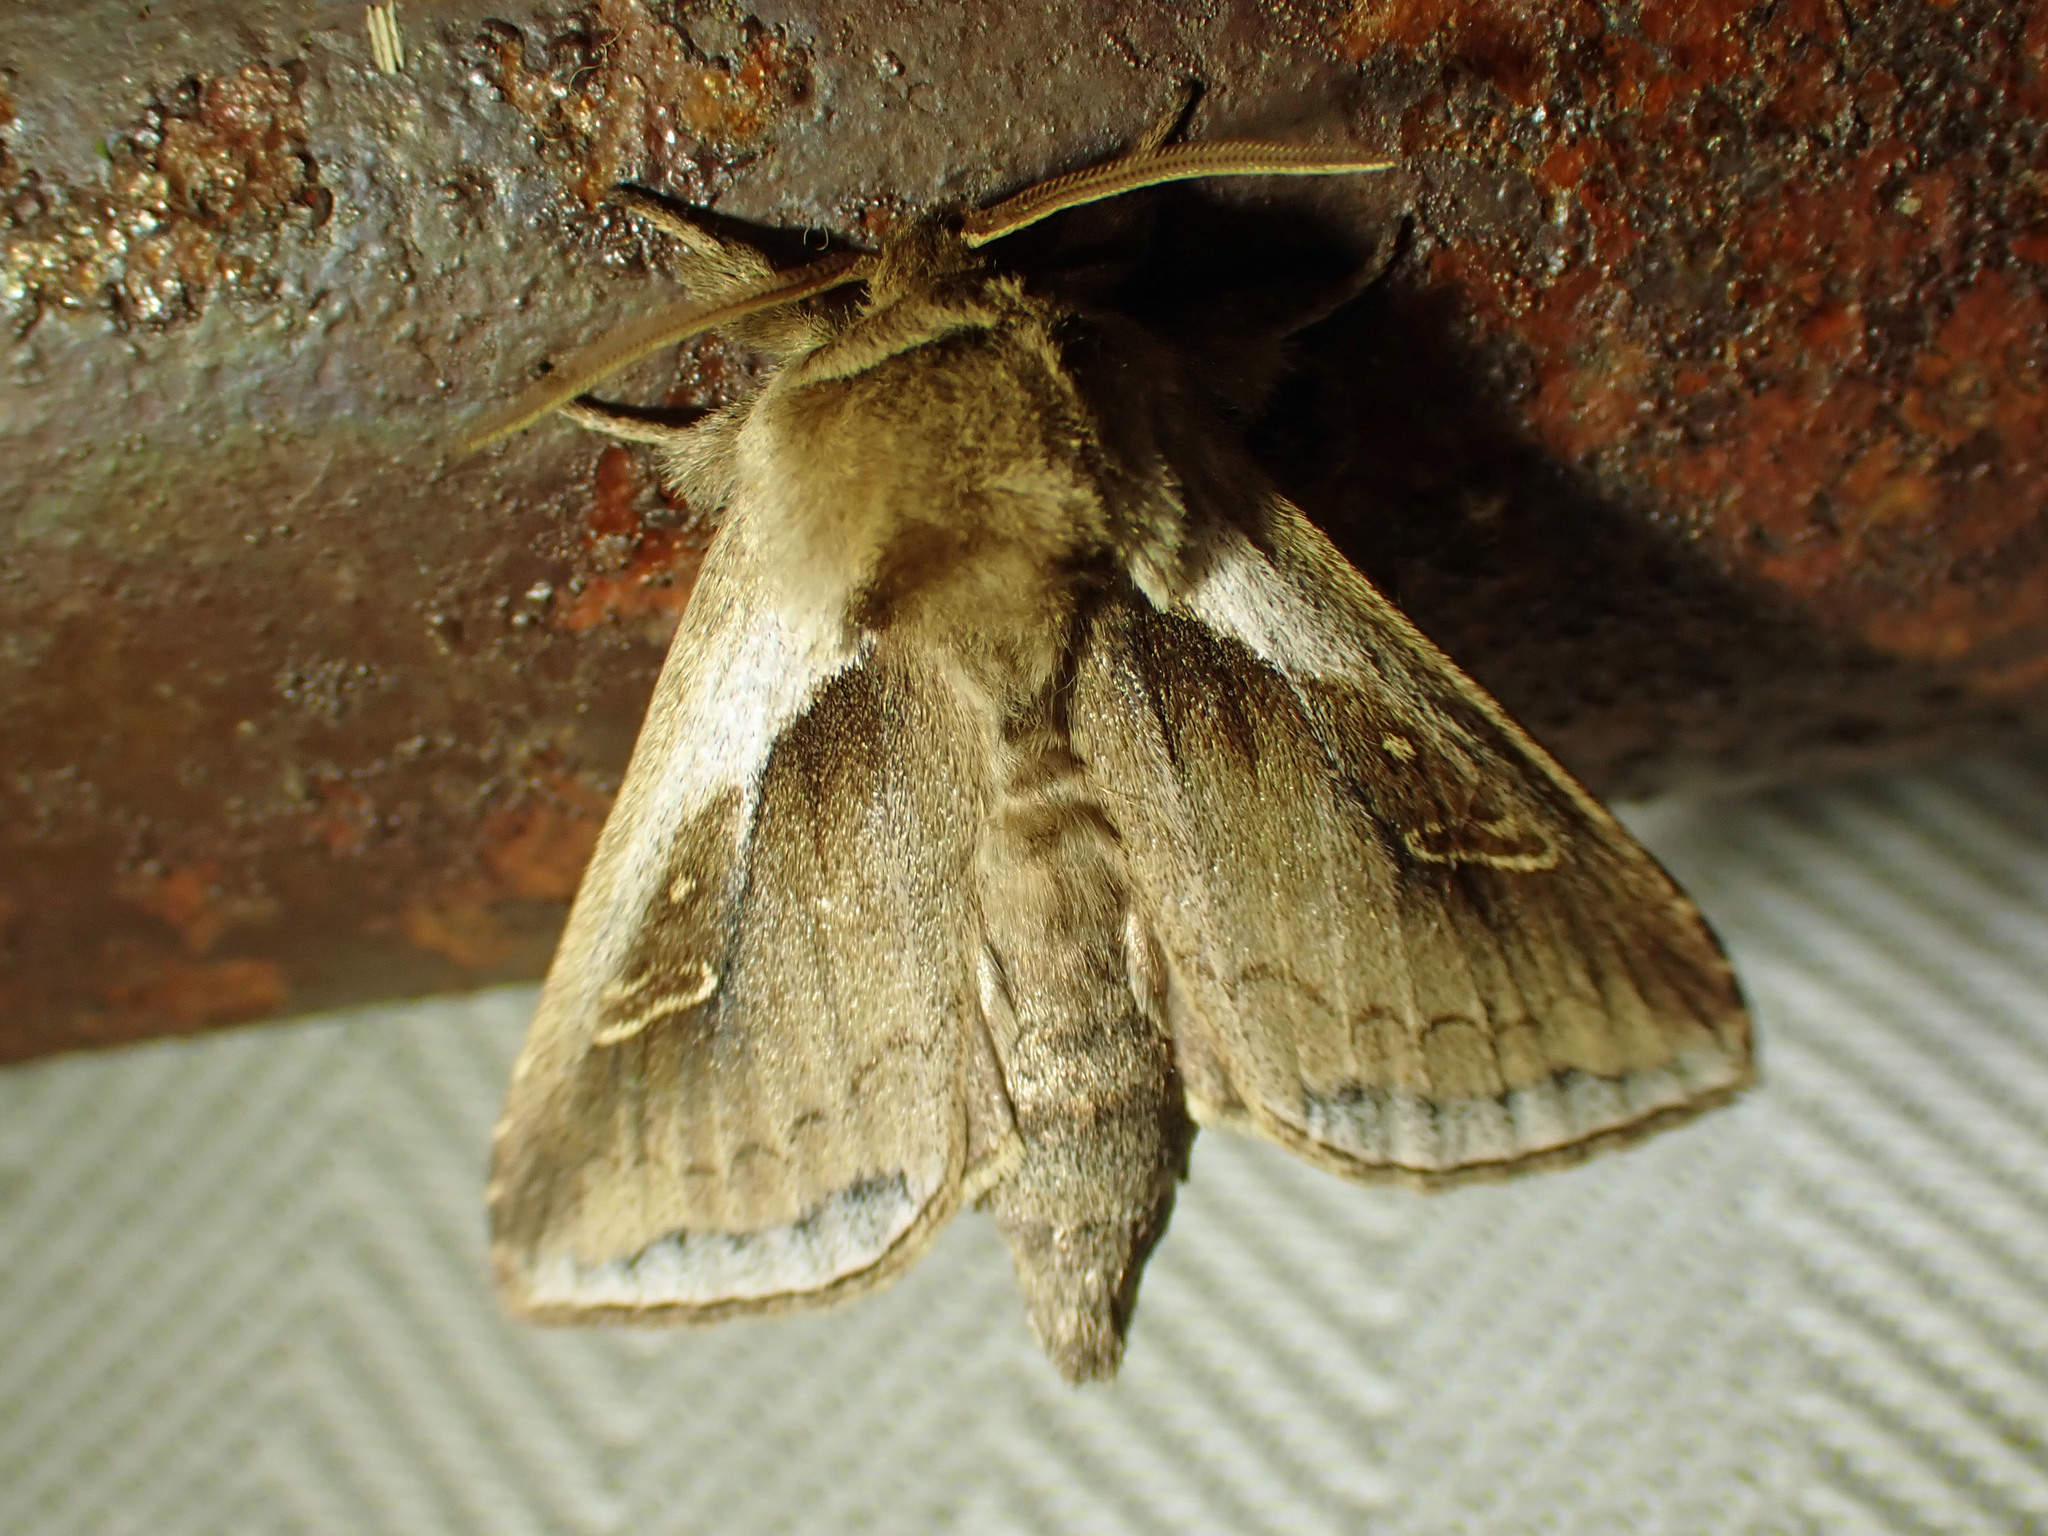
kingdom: Animalia
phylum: Arthropoda
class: Insecta
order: Lepidoptera
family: Noctuidae
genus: Bellura
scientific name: Bellura obliqua
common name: Cattail borer moth
